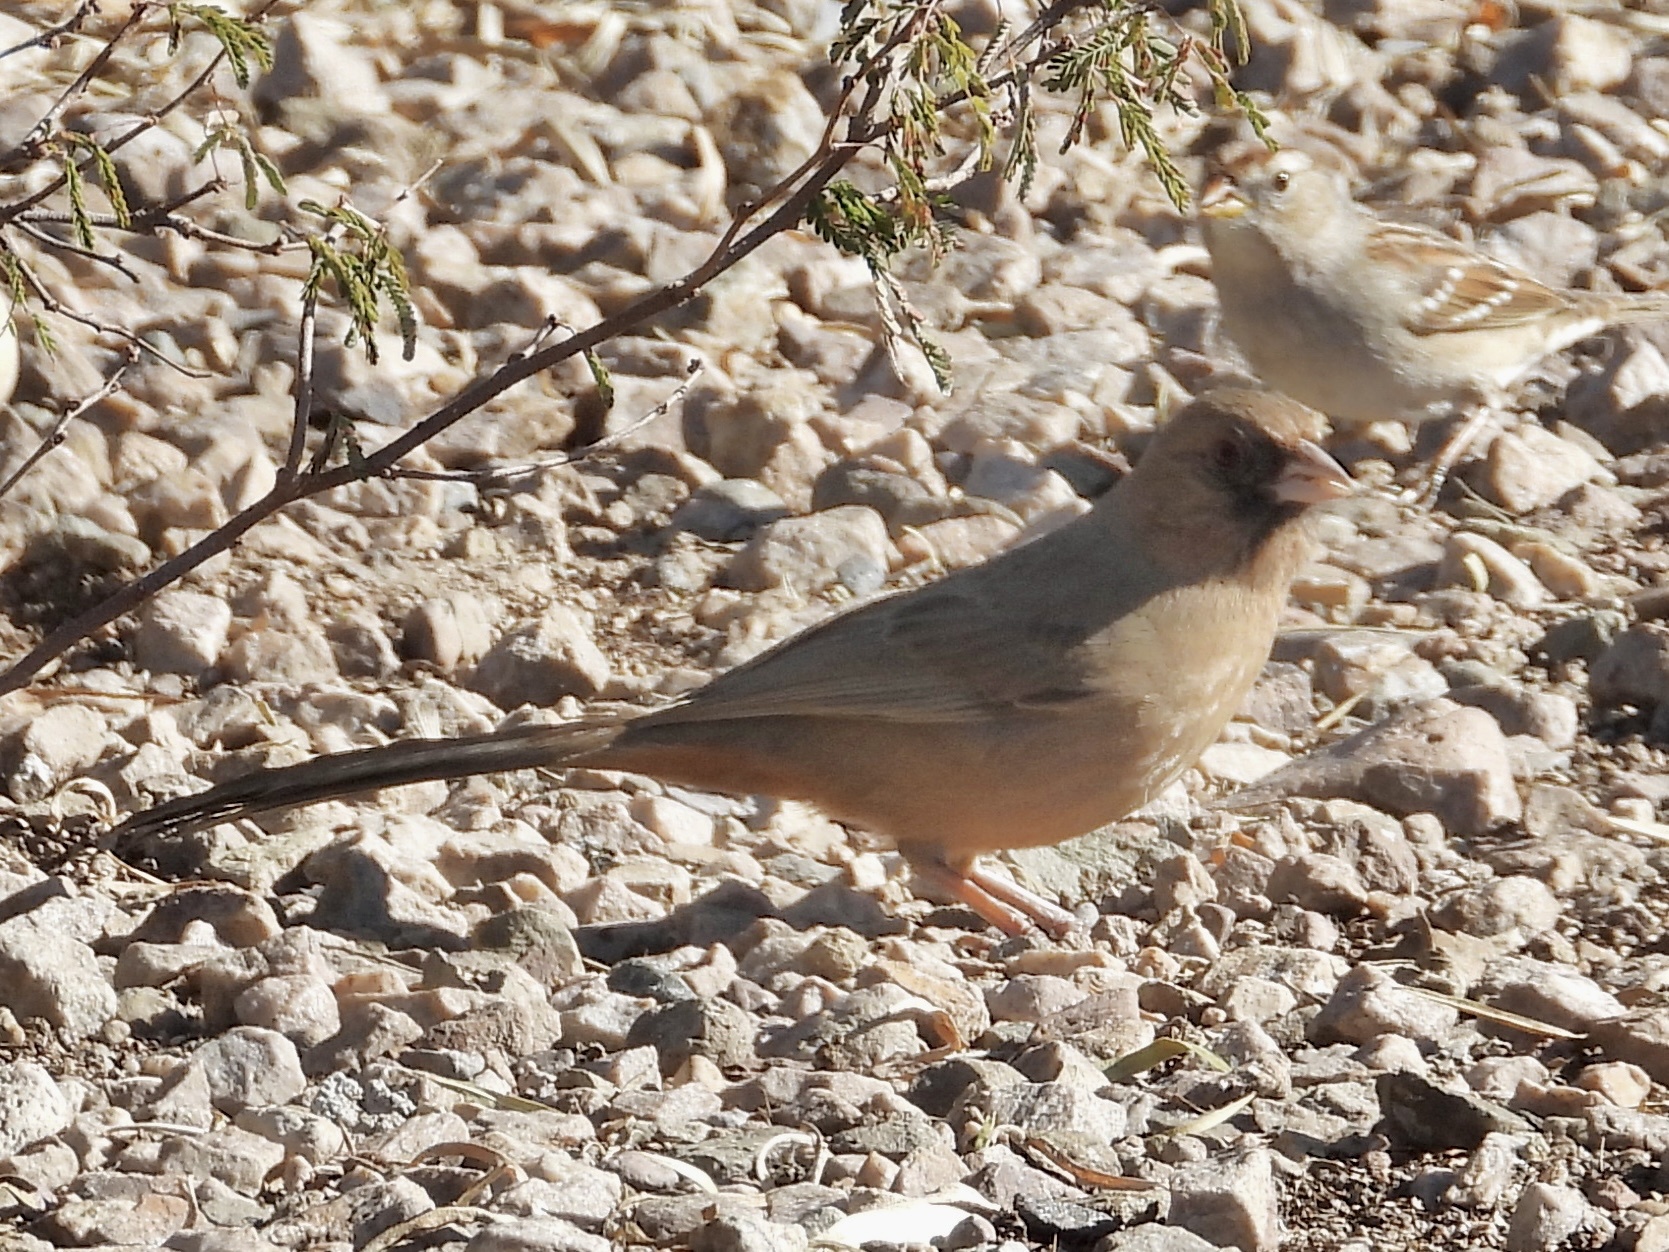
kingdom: Animalia
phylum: Chordata
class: Aves
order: Passeriformes
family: Passerellidae
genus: Melozone
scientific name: Melozone aberti
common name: Abert's towhee
